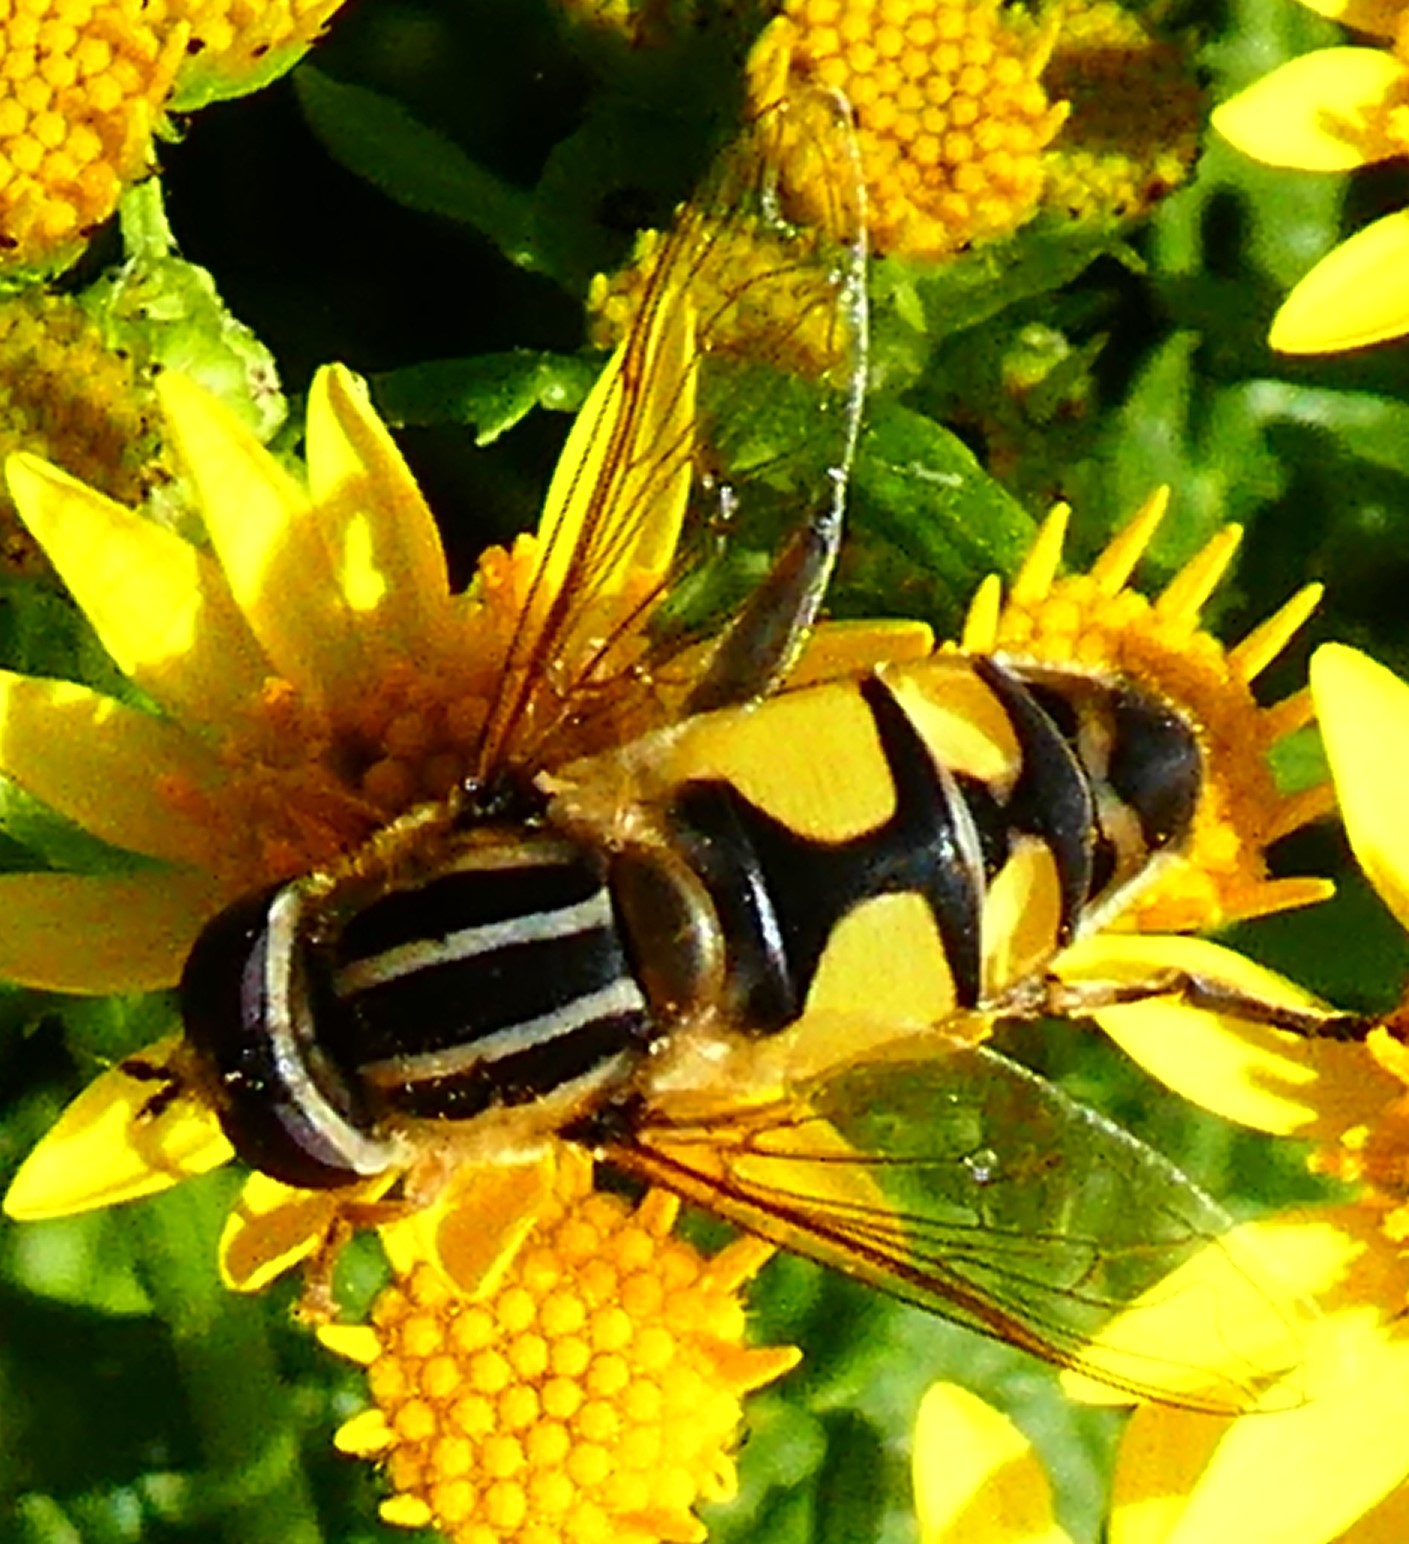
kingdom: Animalia
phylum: Arthropoda
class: Insecta
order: Diptera
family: Syrphidae
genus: Helophilus
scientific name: Helophilus trivittatus
